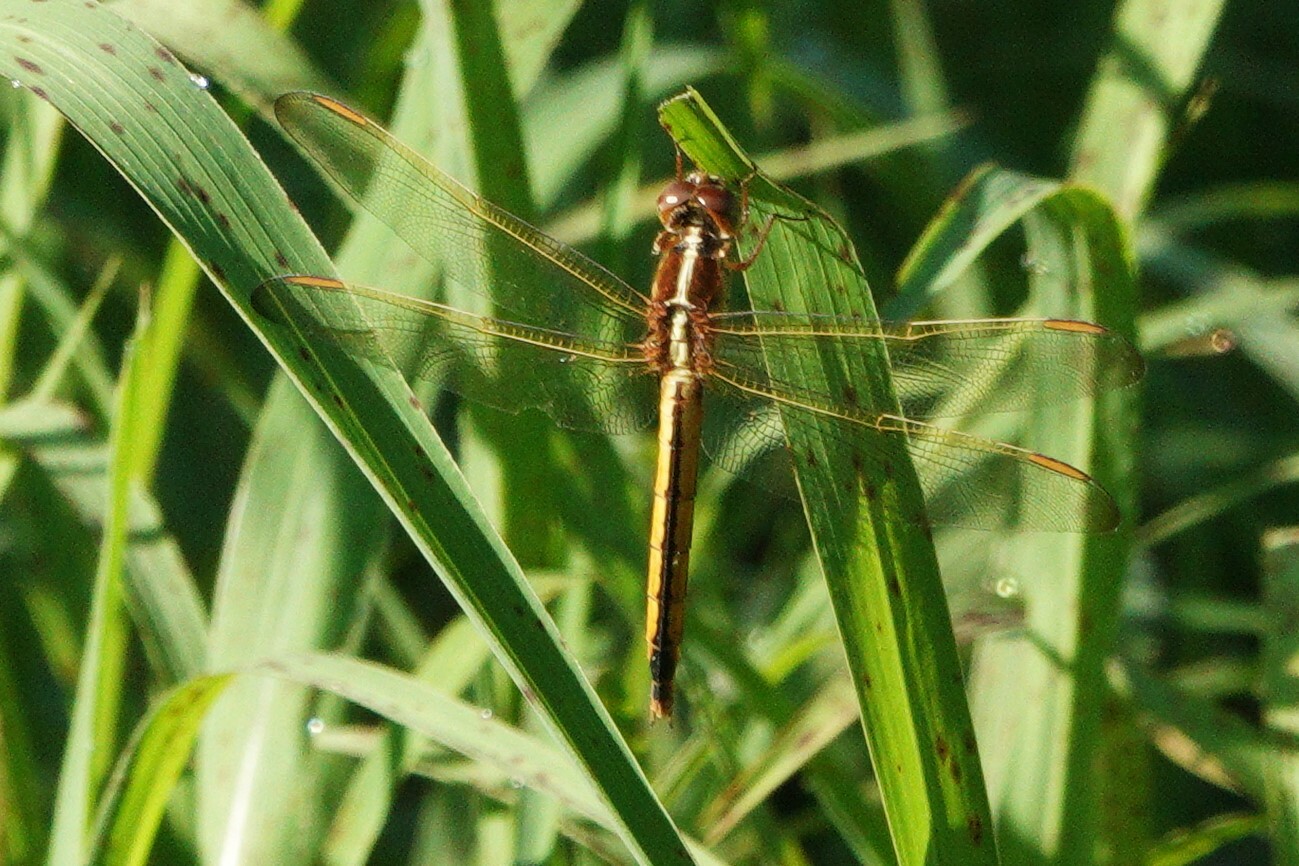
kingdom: Animalia
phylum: Arthropoda
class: Insecta
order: Odonata
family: Libellulidae
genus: Libellula
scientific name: Libellula needhami
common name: Needham's skimmer
